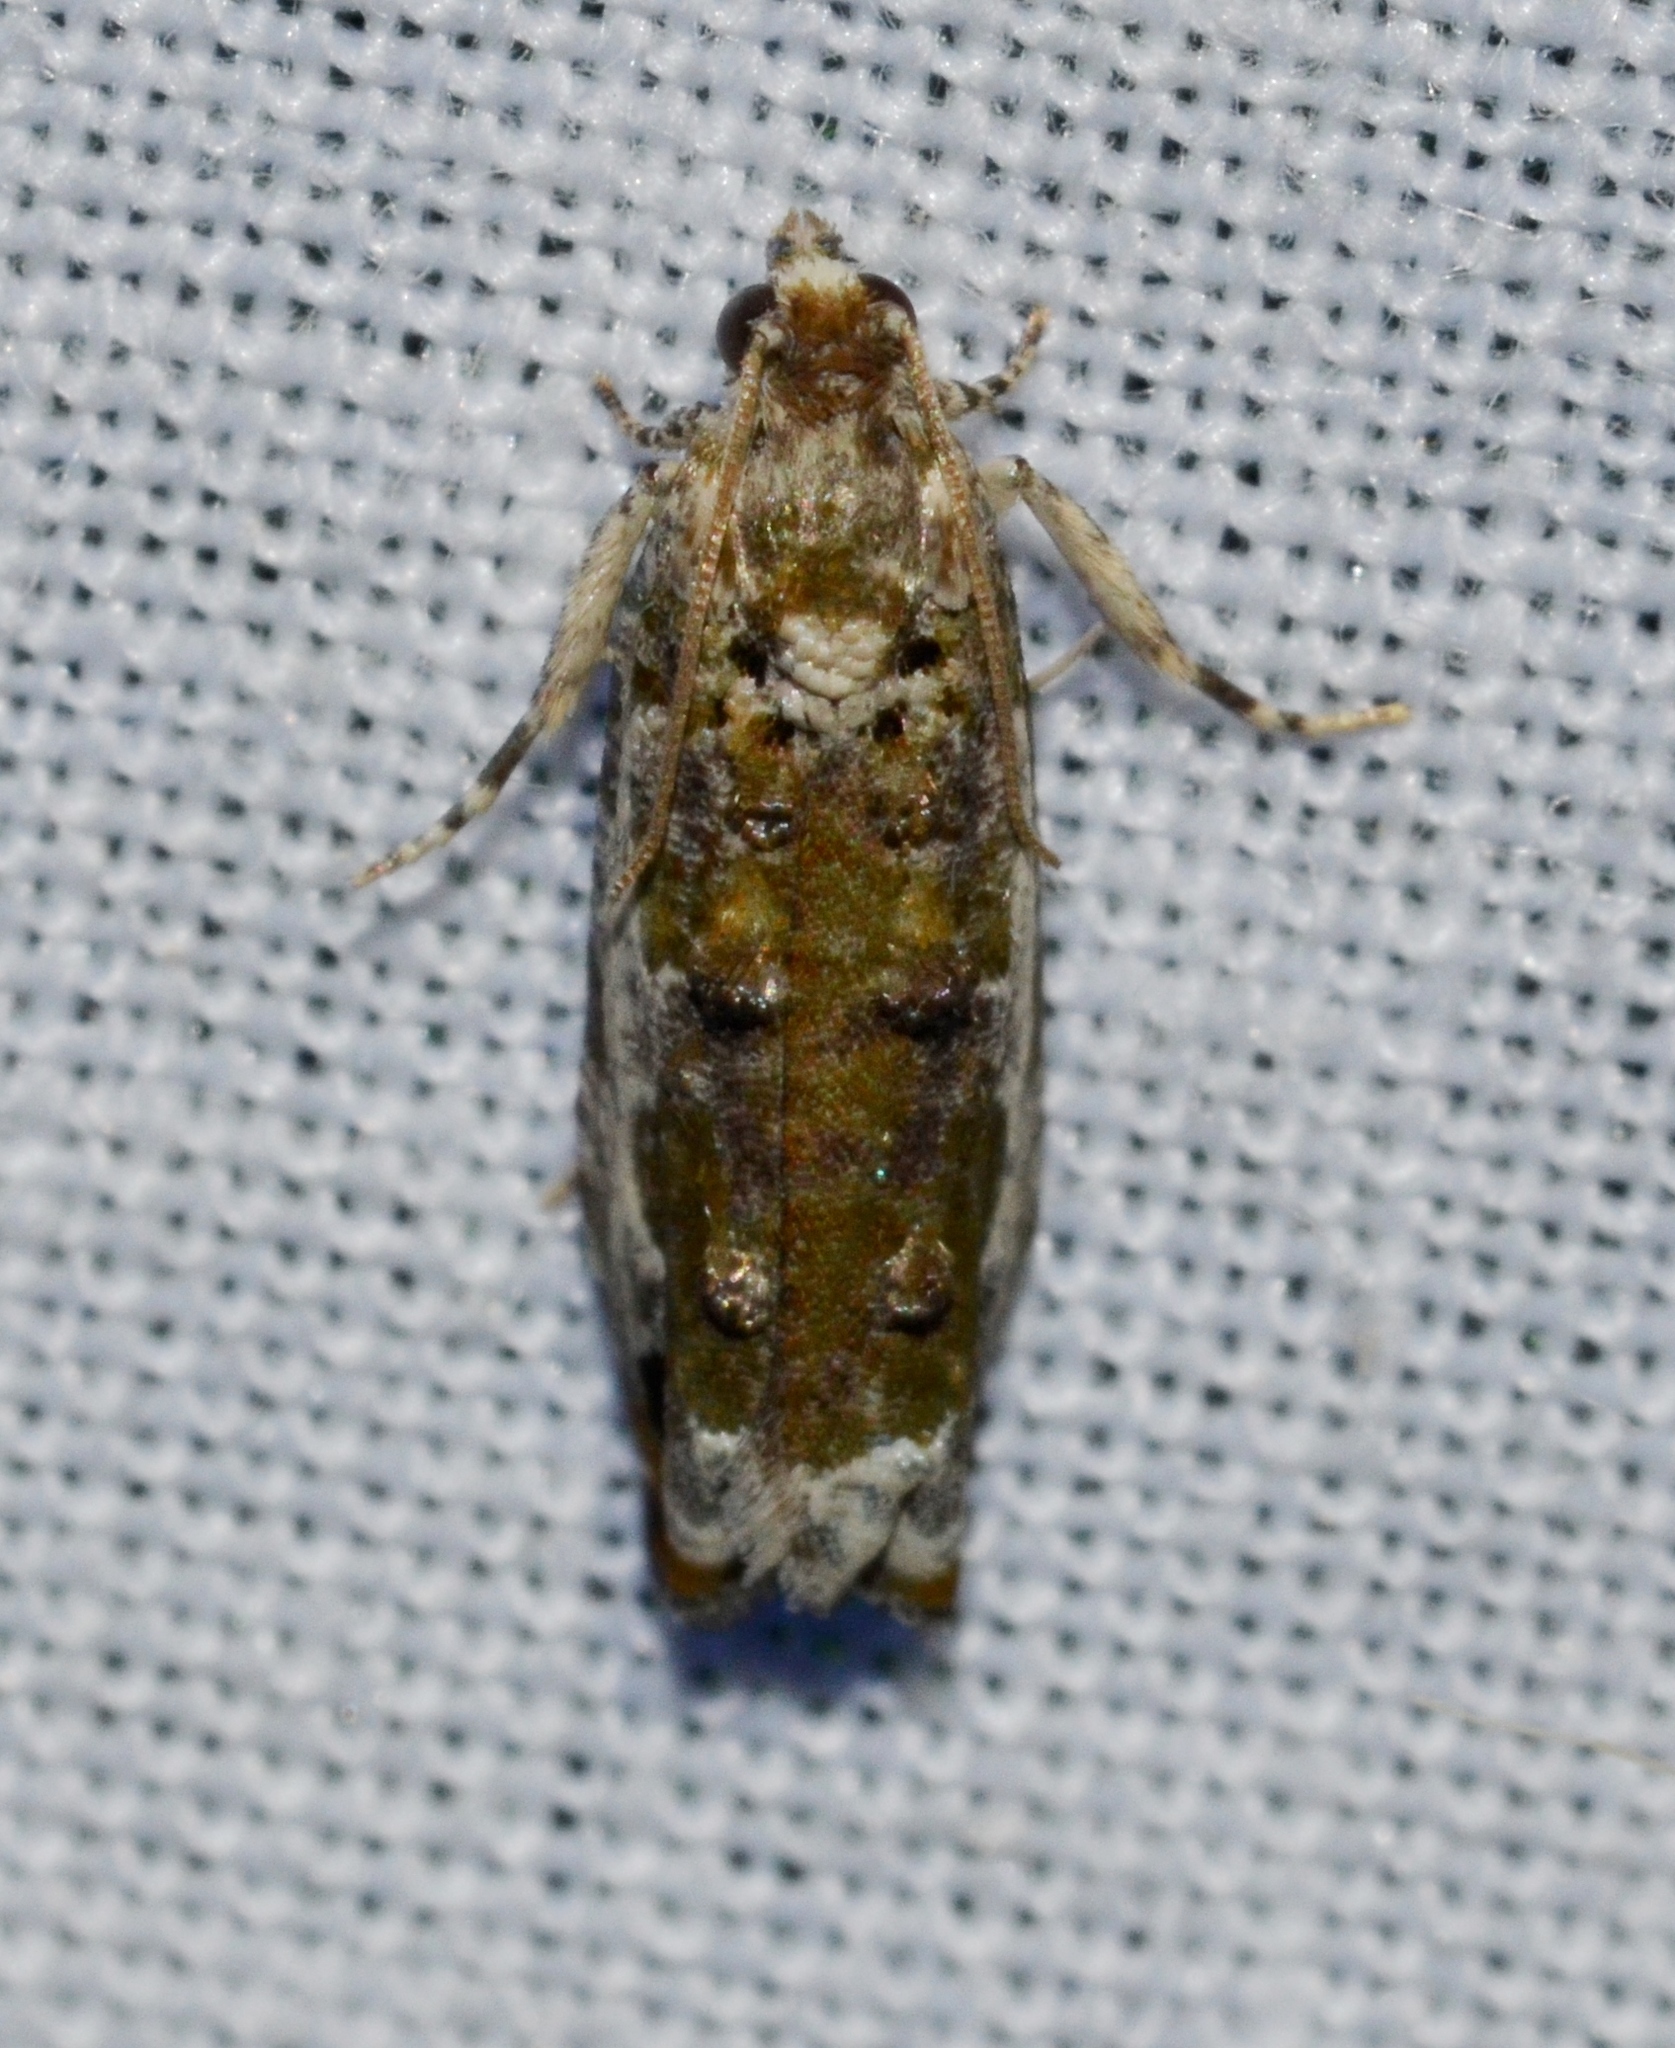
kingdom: Animalia
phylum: Arthropoda
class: Insecta
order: Lepidoptera
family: Tortricidae
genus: Proteoteras
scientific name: Proteoteras naracana
